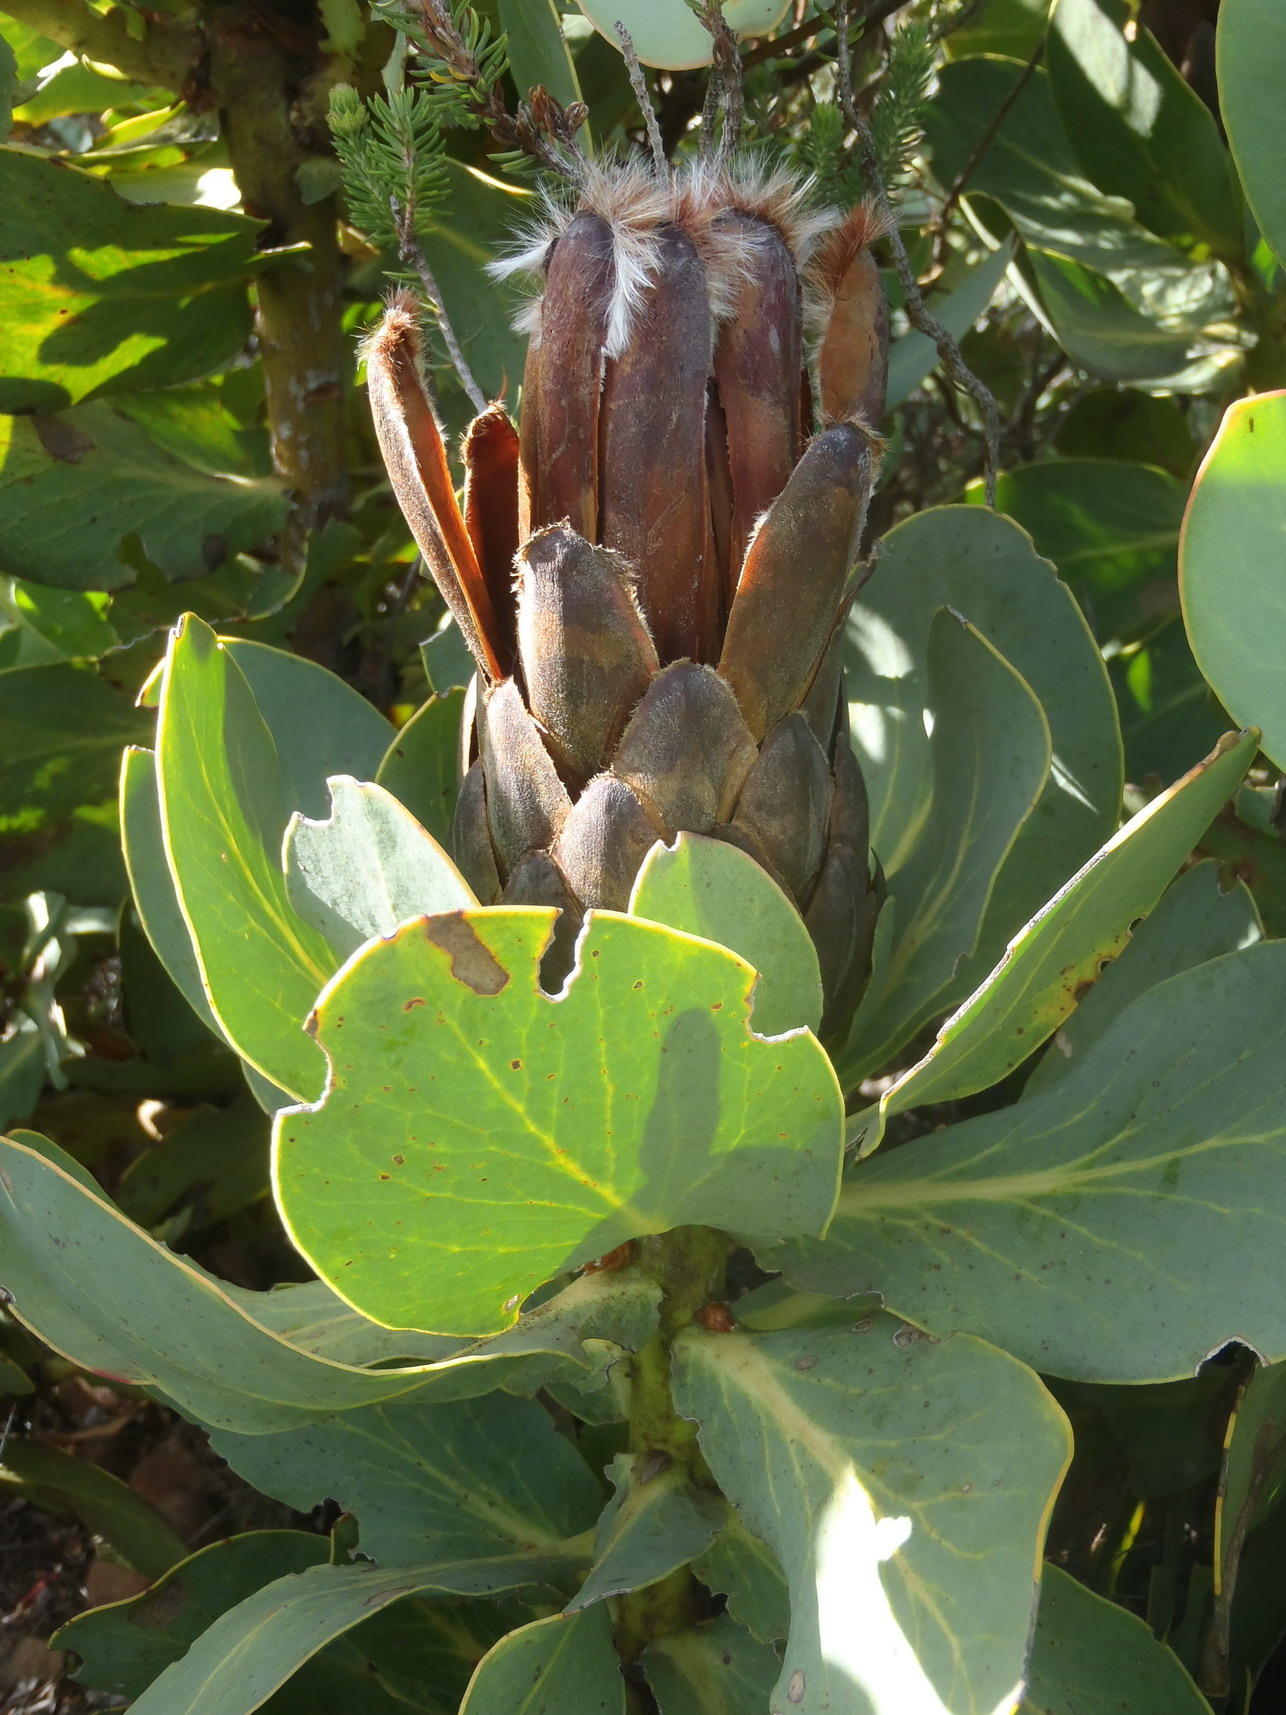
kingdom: Plantae
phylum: Tracheophyta
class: Magnoliopsida
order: Proteales
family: Proteaceae
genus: Protea
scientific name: Protea grandiceps
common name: Red sugarbush
